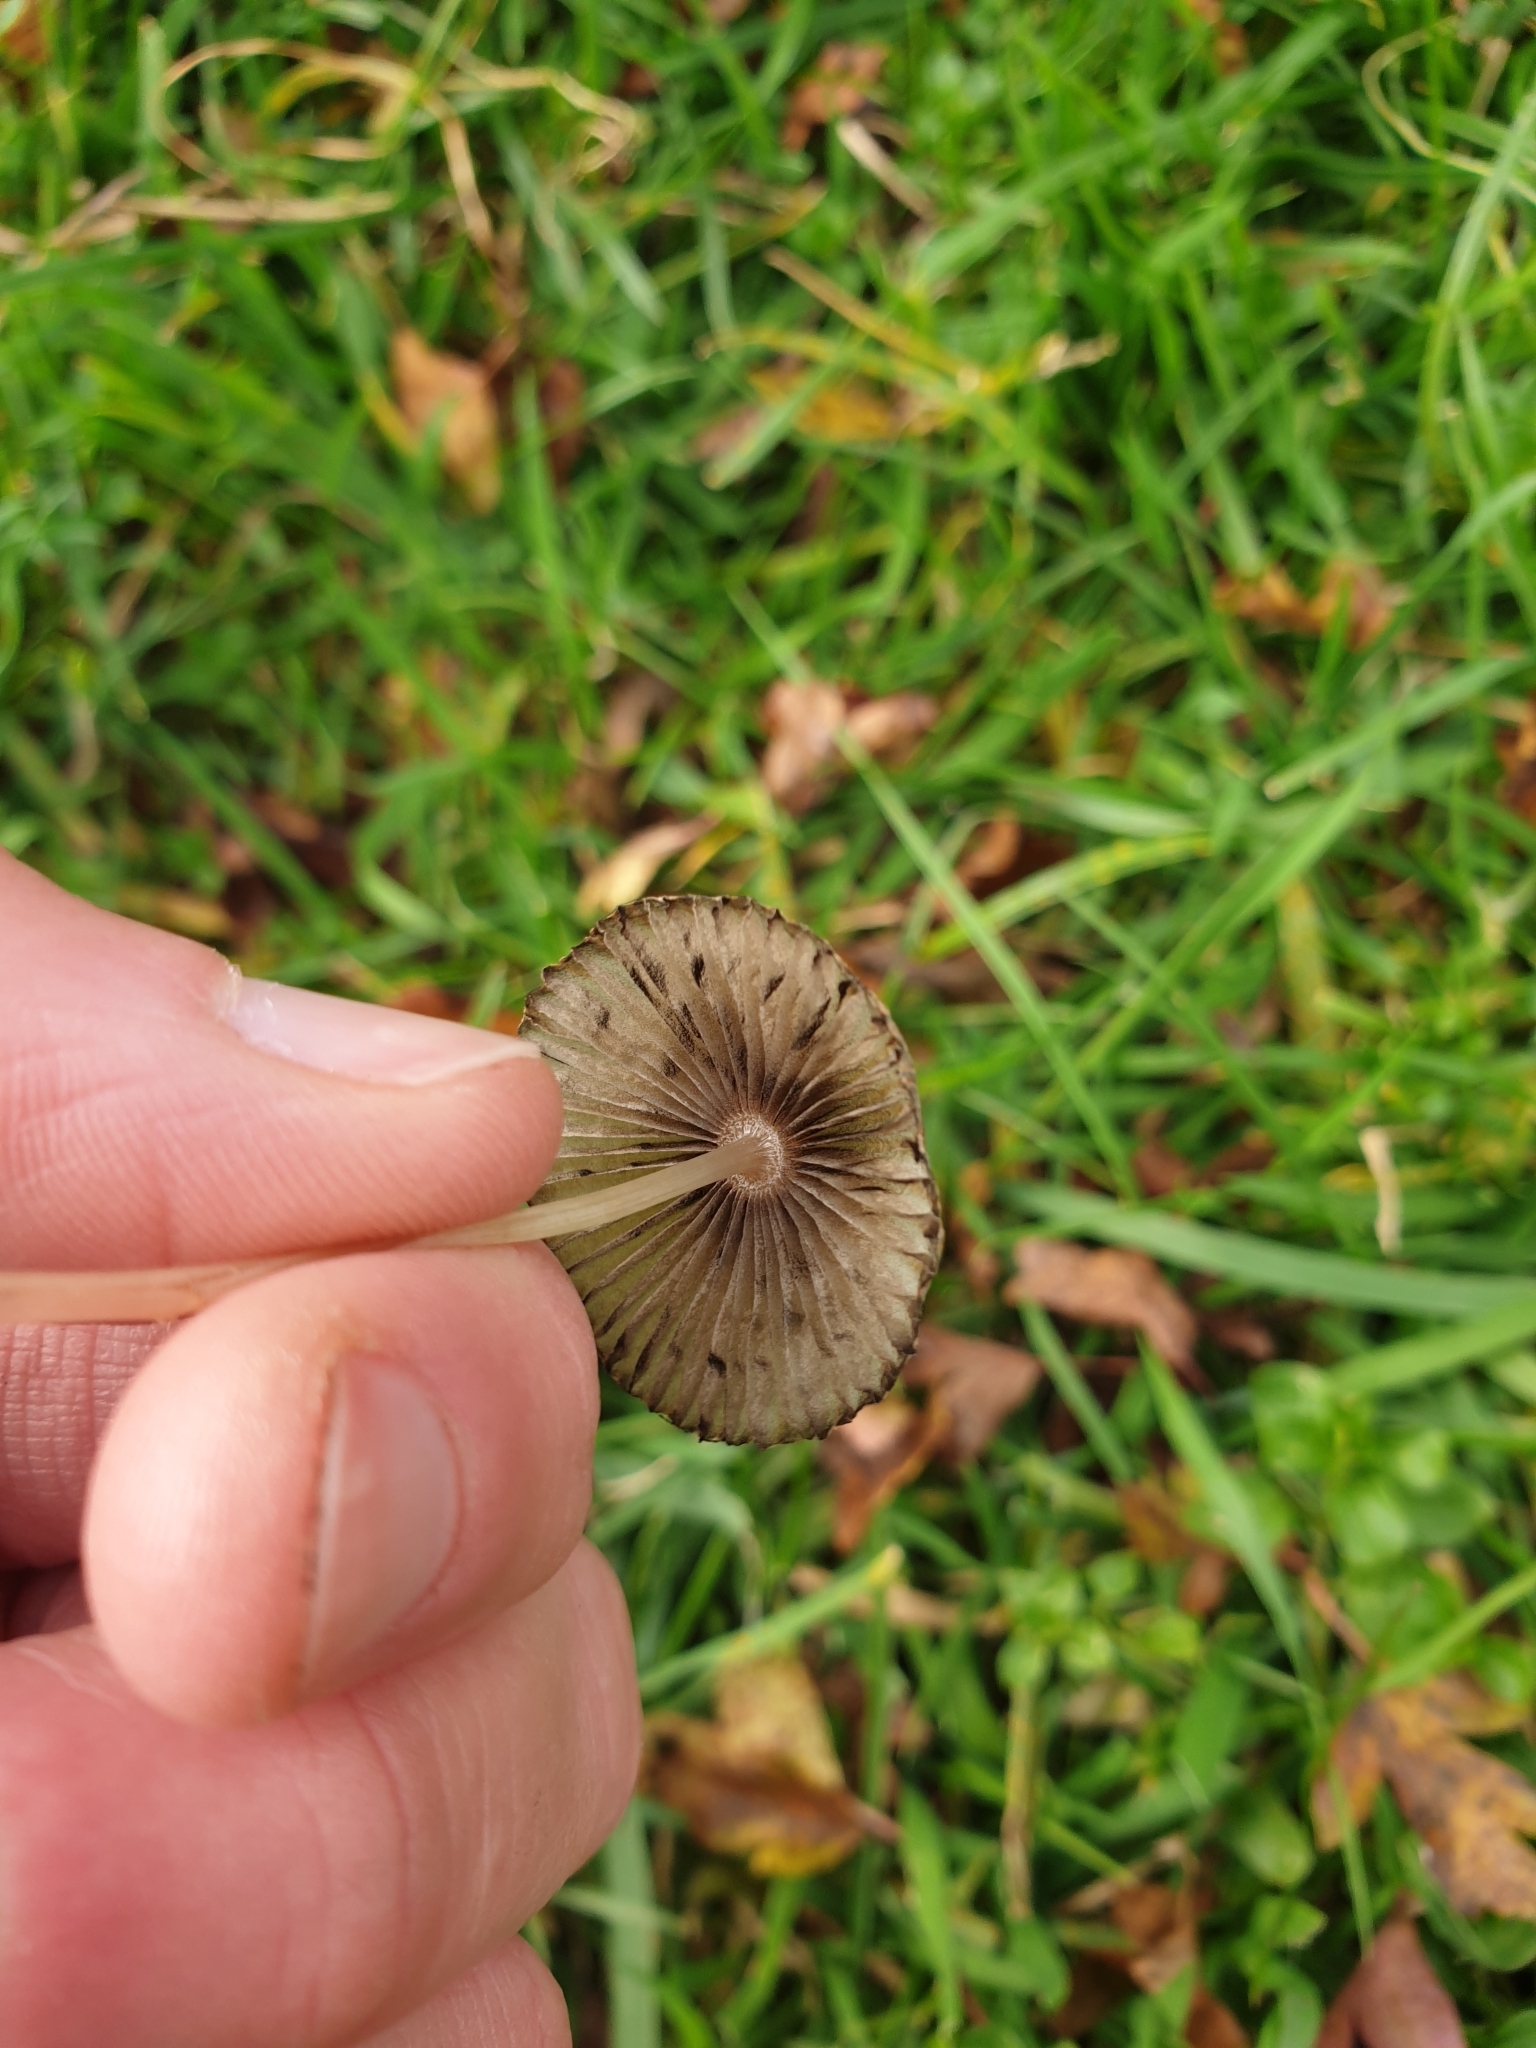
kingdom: Fungi
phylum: Basidiomycota
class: Agaricomycetes
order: Agaricales
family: Psathyrellaceae
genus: Parasola
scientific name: Parasola plicatilis
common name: Pleated inkcap
